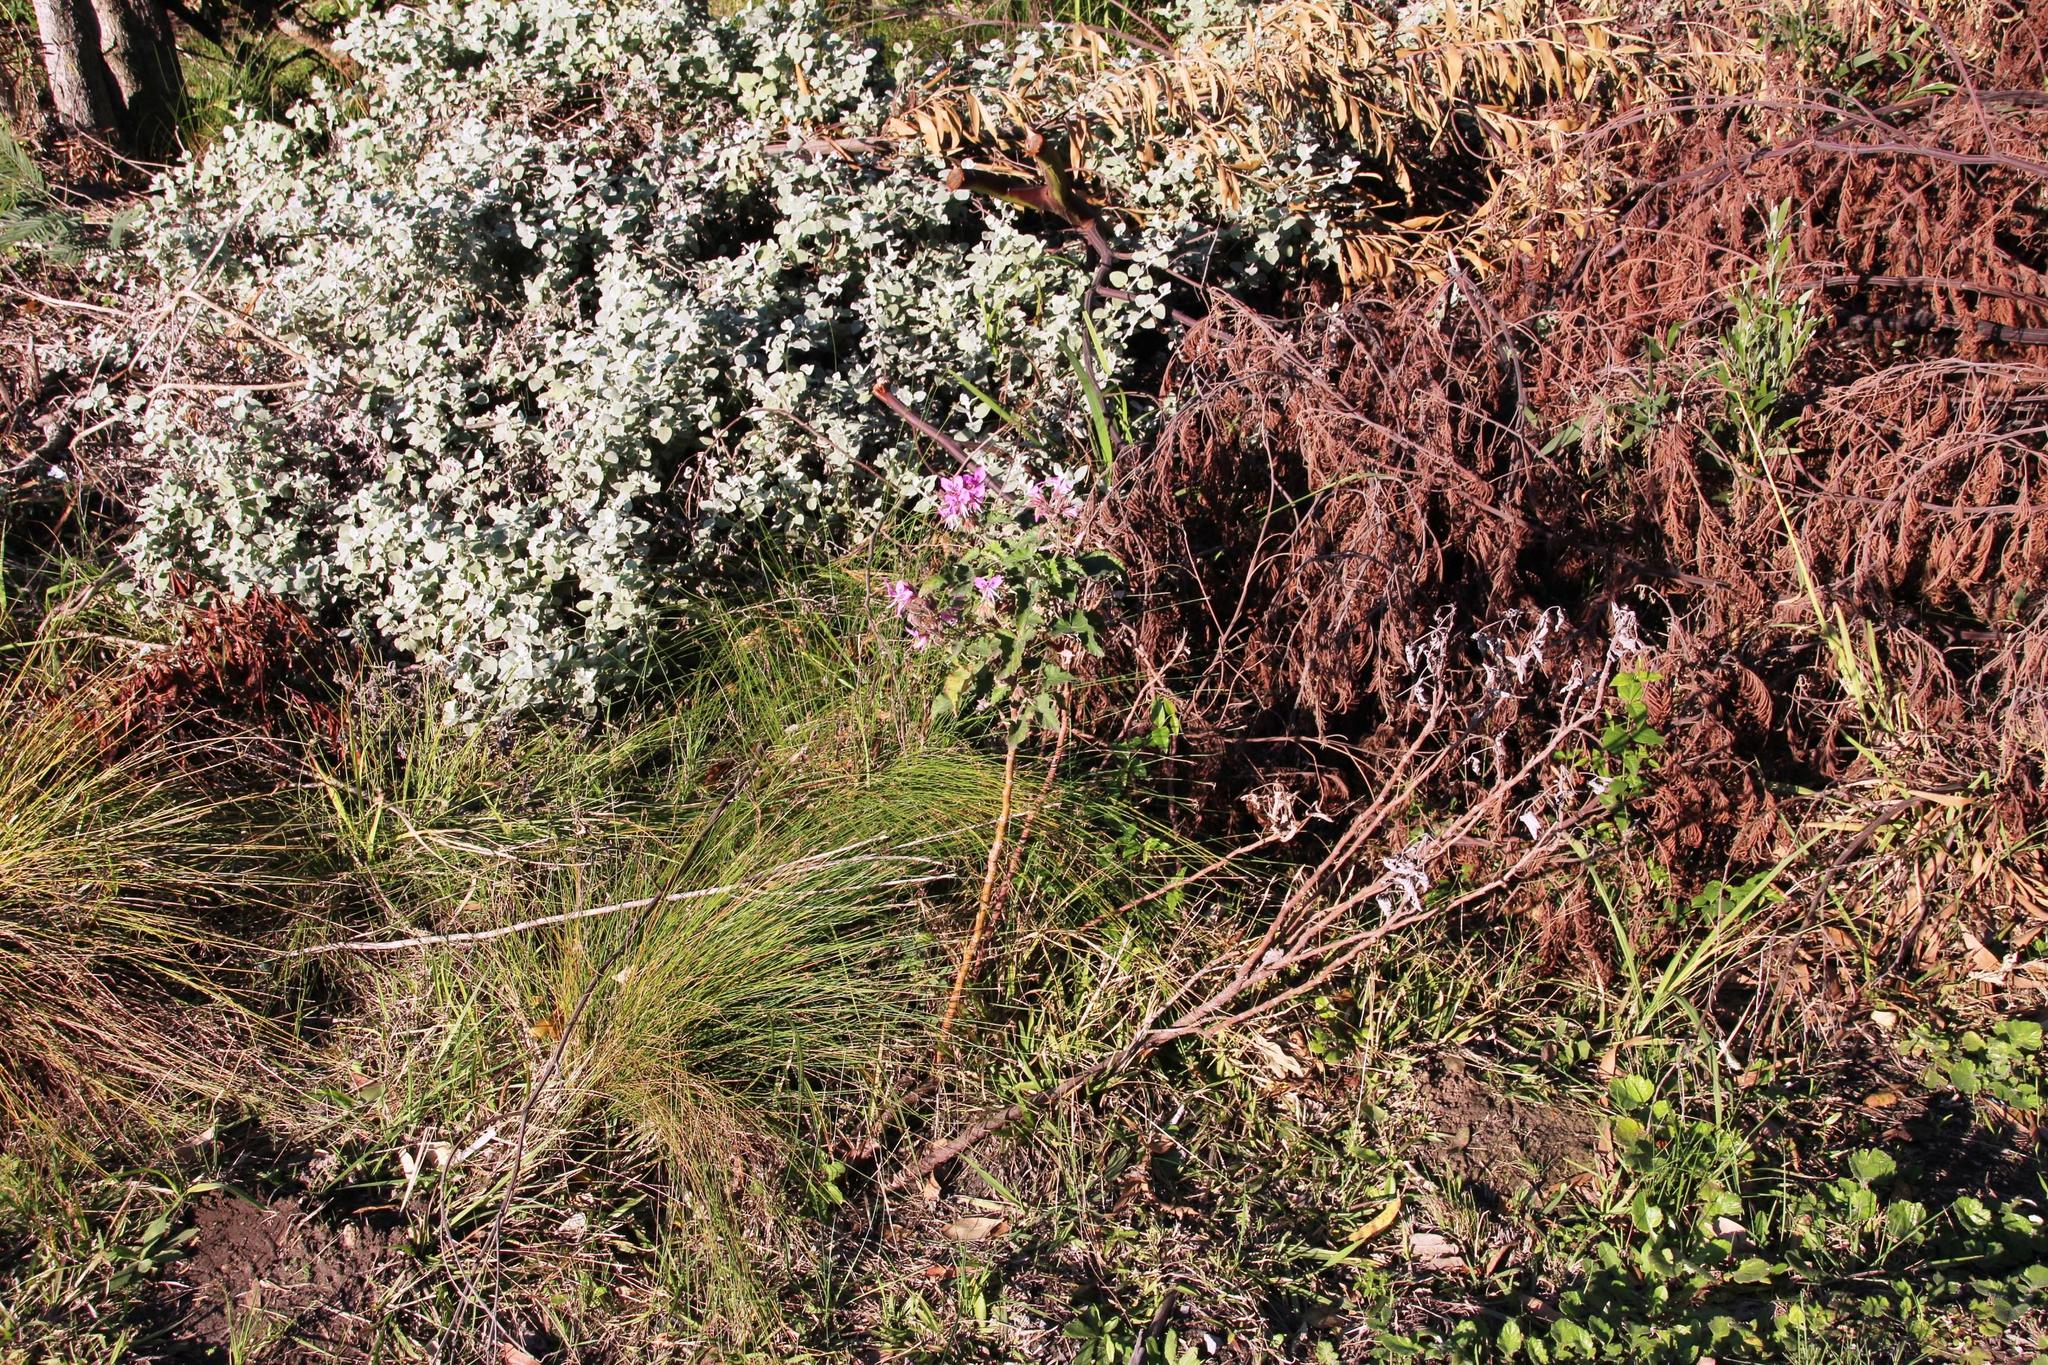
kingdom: Plantae
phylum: Tracheophyta
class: Magnoliopsida
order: Geraniales
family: Geraniaceae
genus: Pelargonium
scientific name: Pelargonium cordifolium
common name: Heart-leaf pelargonium
